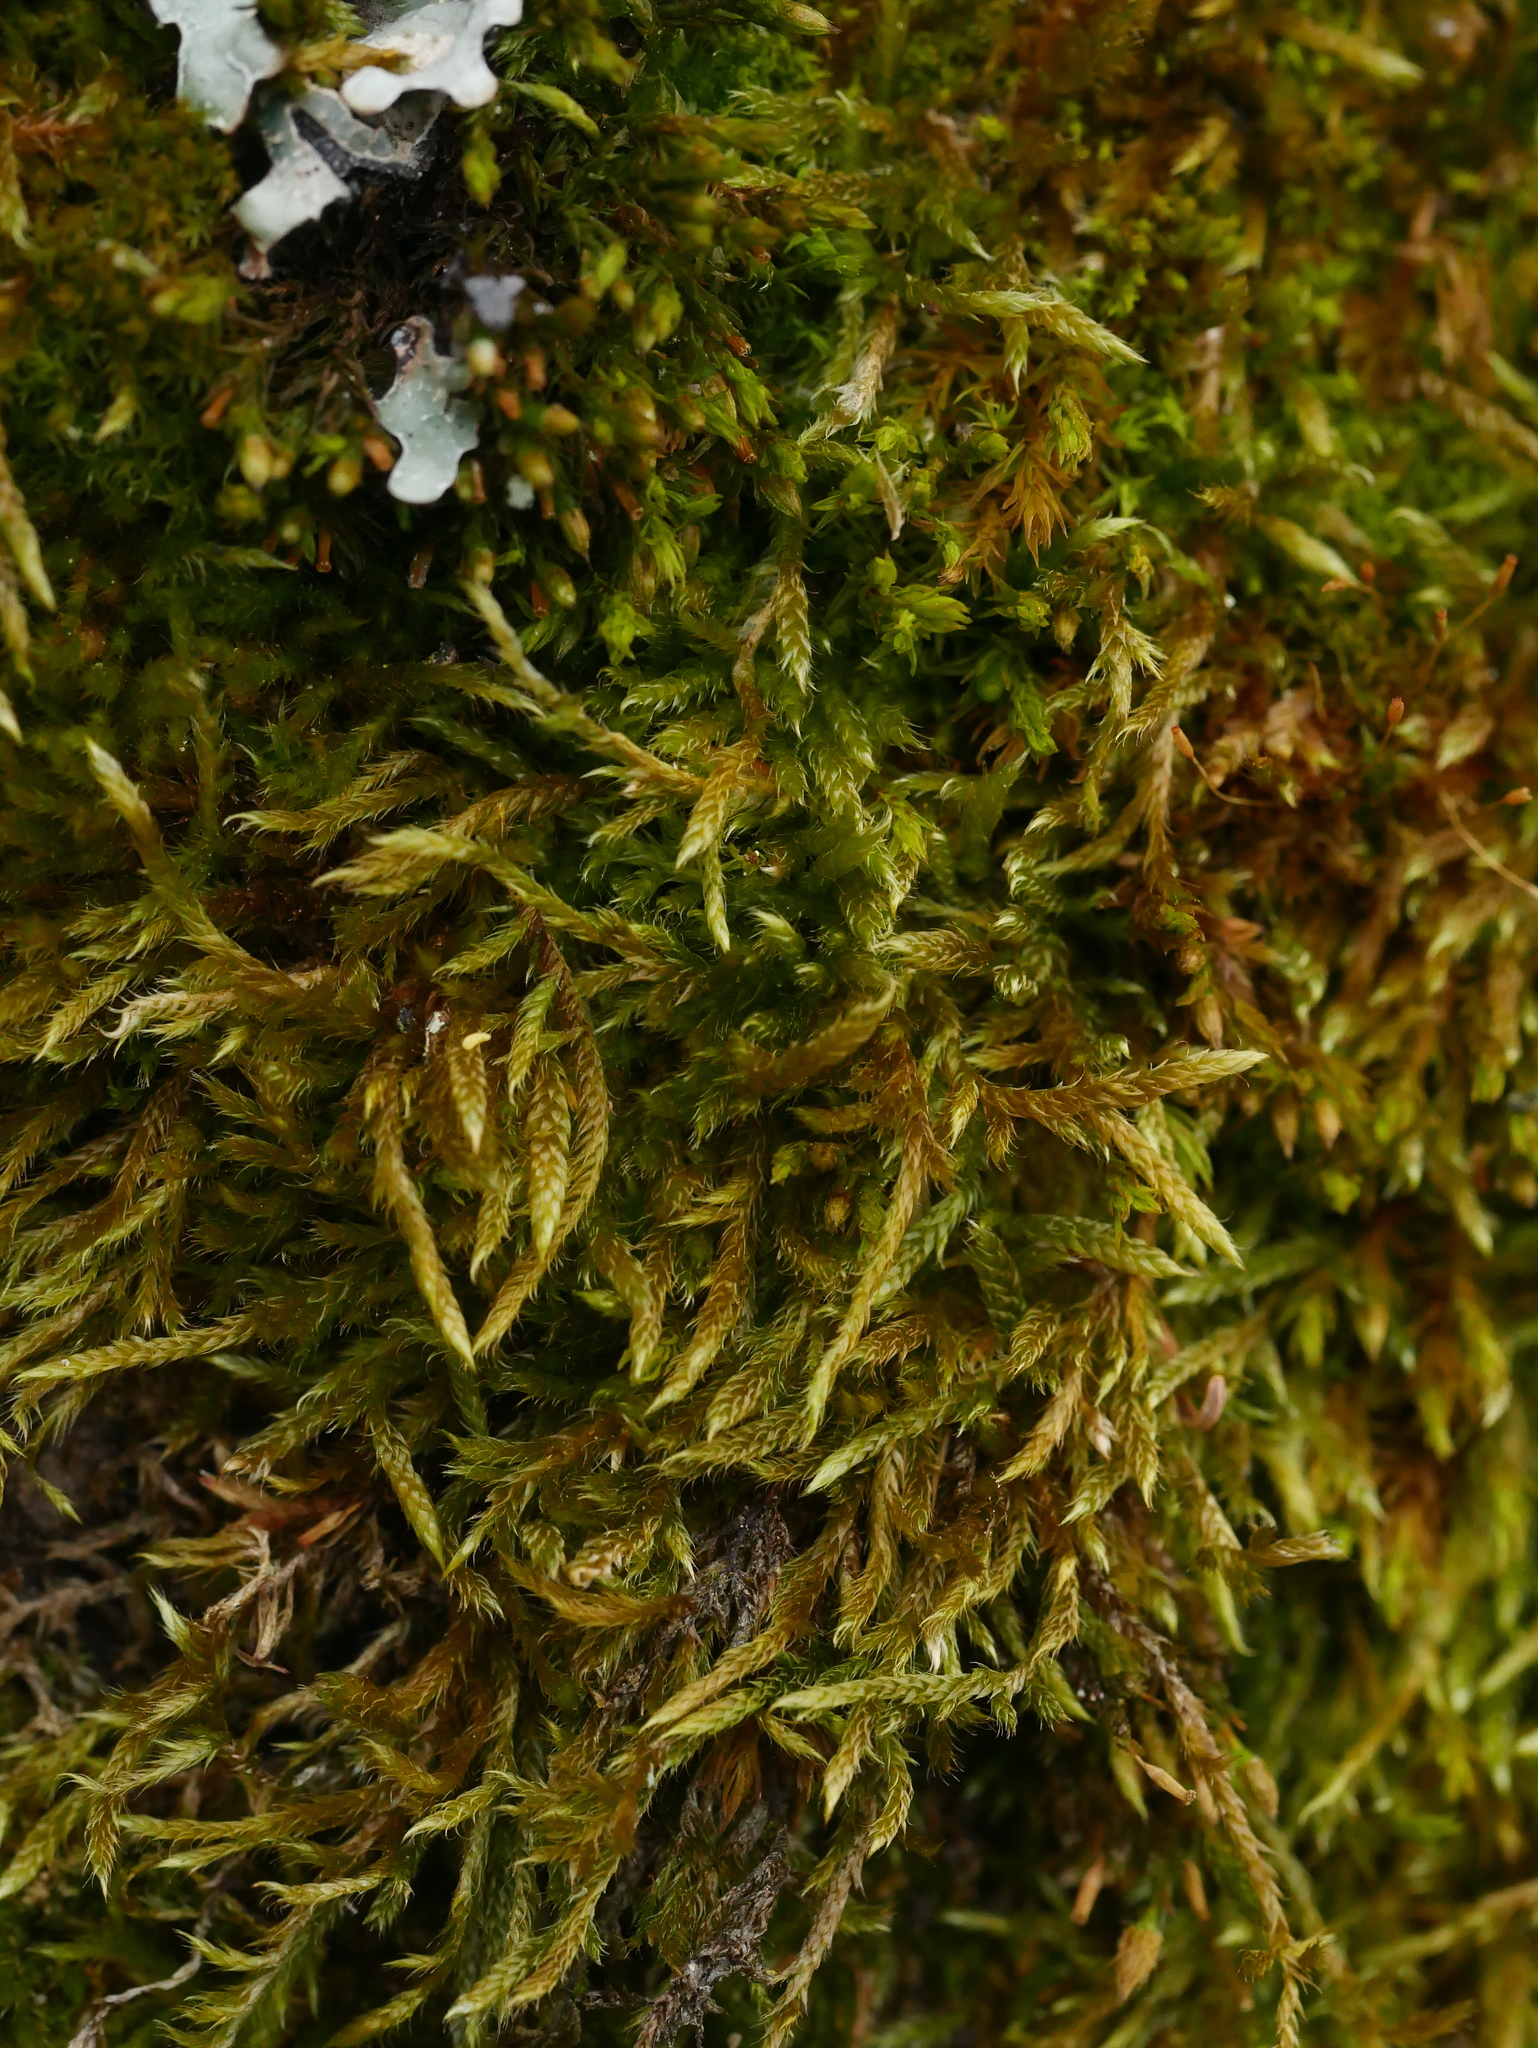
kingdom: Plantae
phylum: Bryophyta
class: Bryopsida
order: Hypnales
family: Hypnaceae
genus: Hypnum
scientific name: Hypnum cupressiforme
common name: Cypress-leaved plait-moss
